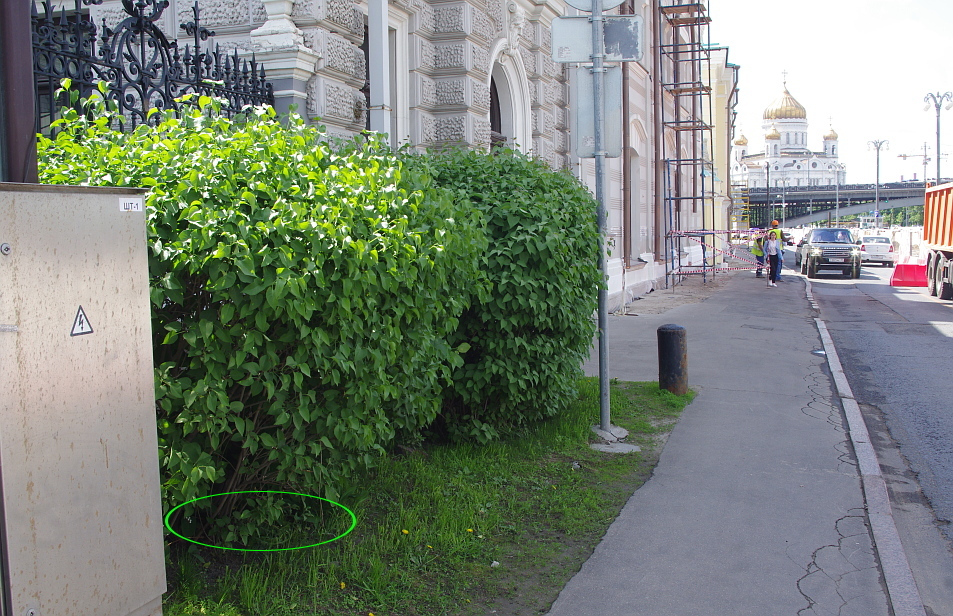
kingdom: Plantae
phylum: Tracheophyta
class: Liliopsida
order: Asparagales
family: Asparagaceae
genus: Convallaria
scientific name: Convallaria majalis
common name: Lily-of-the-valley
